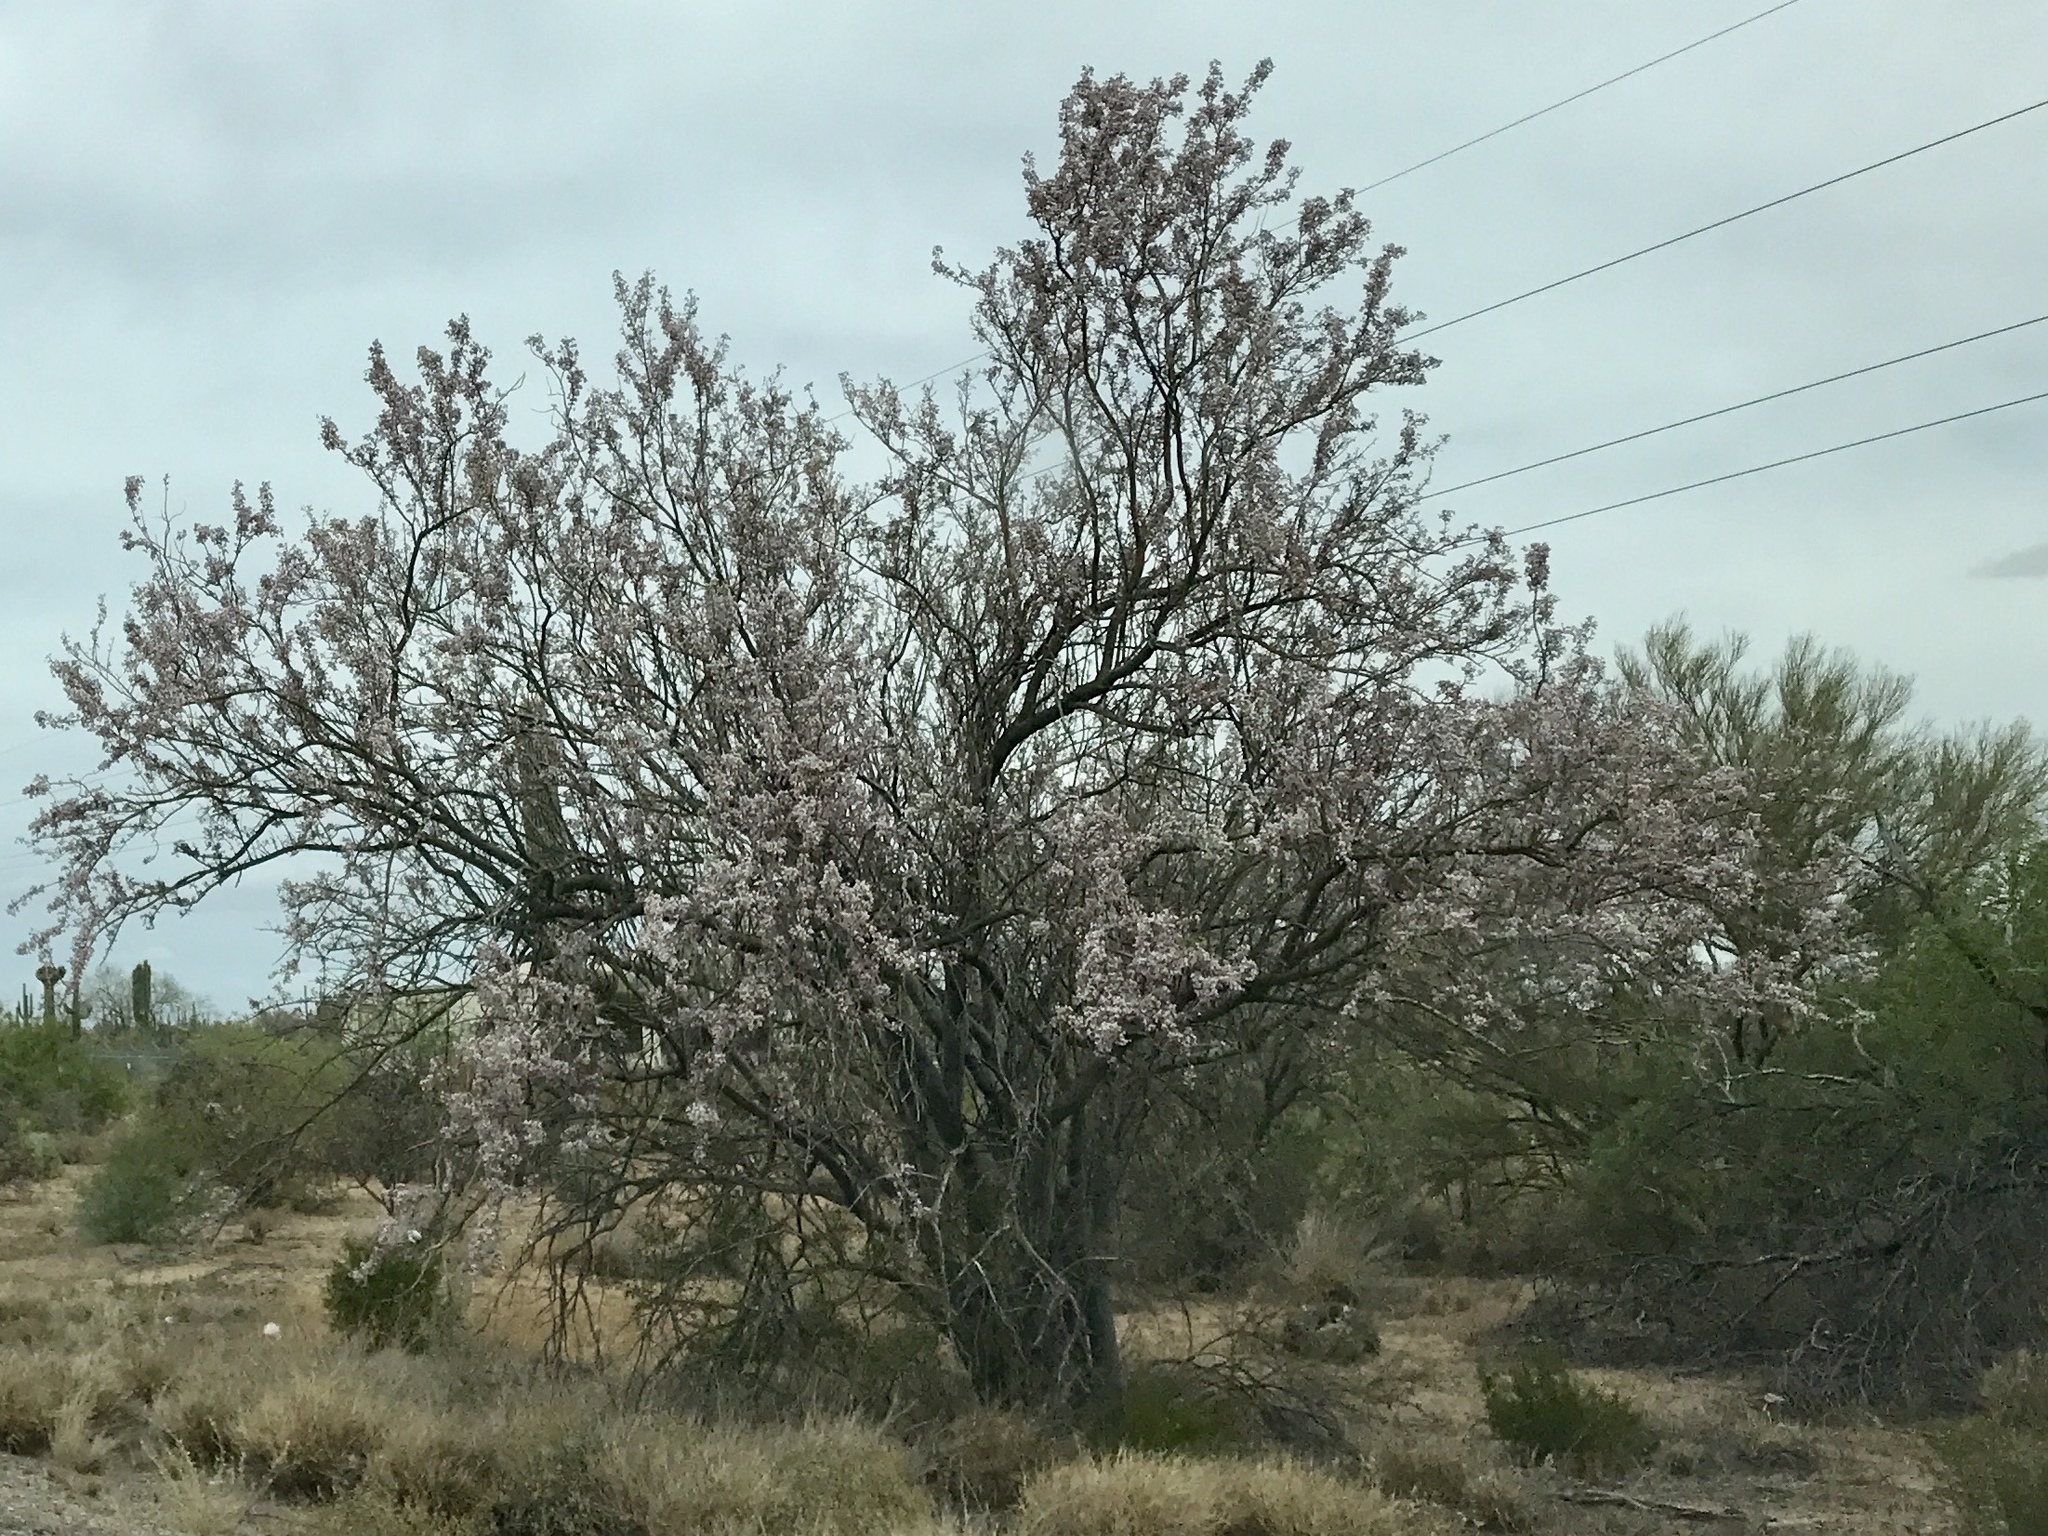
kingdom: Plantae
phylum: Tracheophyta
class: Magnoliopsida
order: Fabales
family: Fabaceae
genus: Olneya
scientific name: Olneya tesota
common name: Desert ironwood
